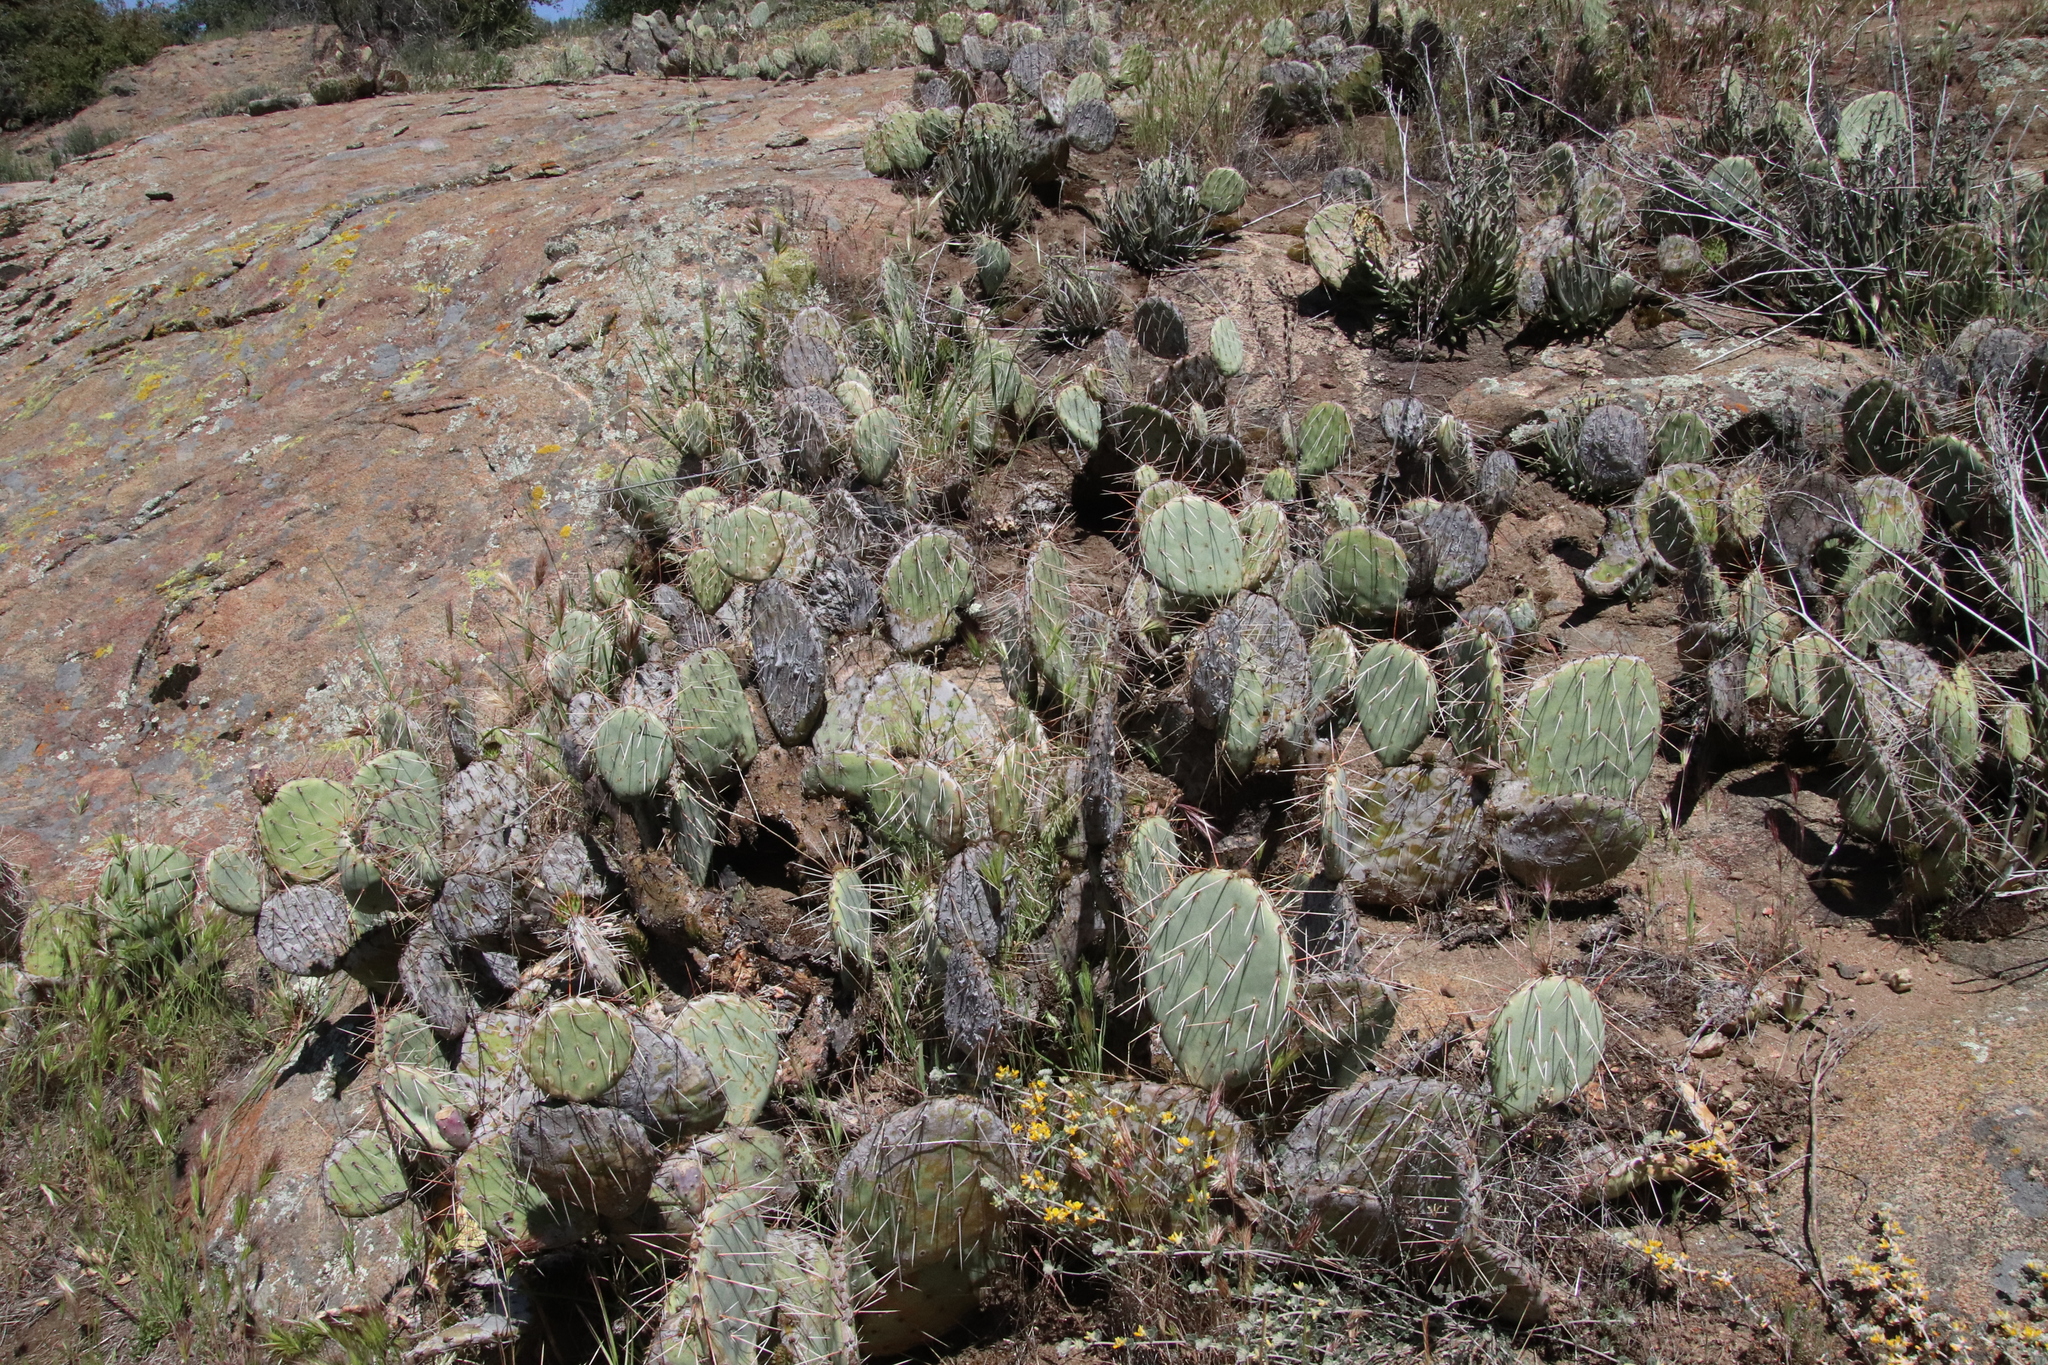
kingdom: Plantae
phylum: Tracheophyta
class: Magnoliopsida
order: Caryophyllales
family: Cactaceae
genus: Opuntia
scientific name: Opuntia phaeacantha
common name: New mexico prickly-pear
